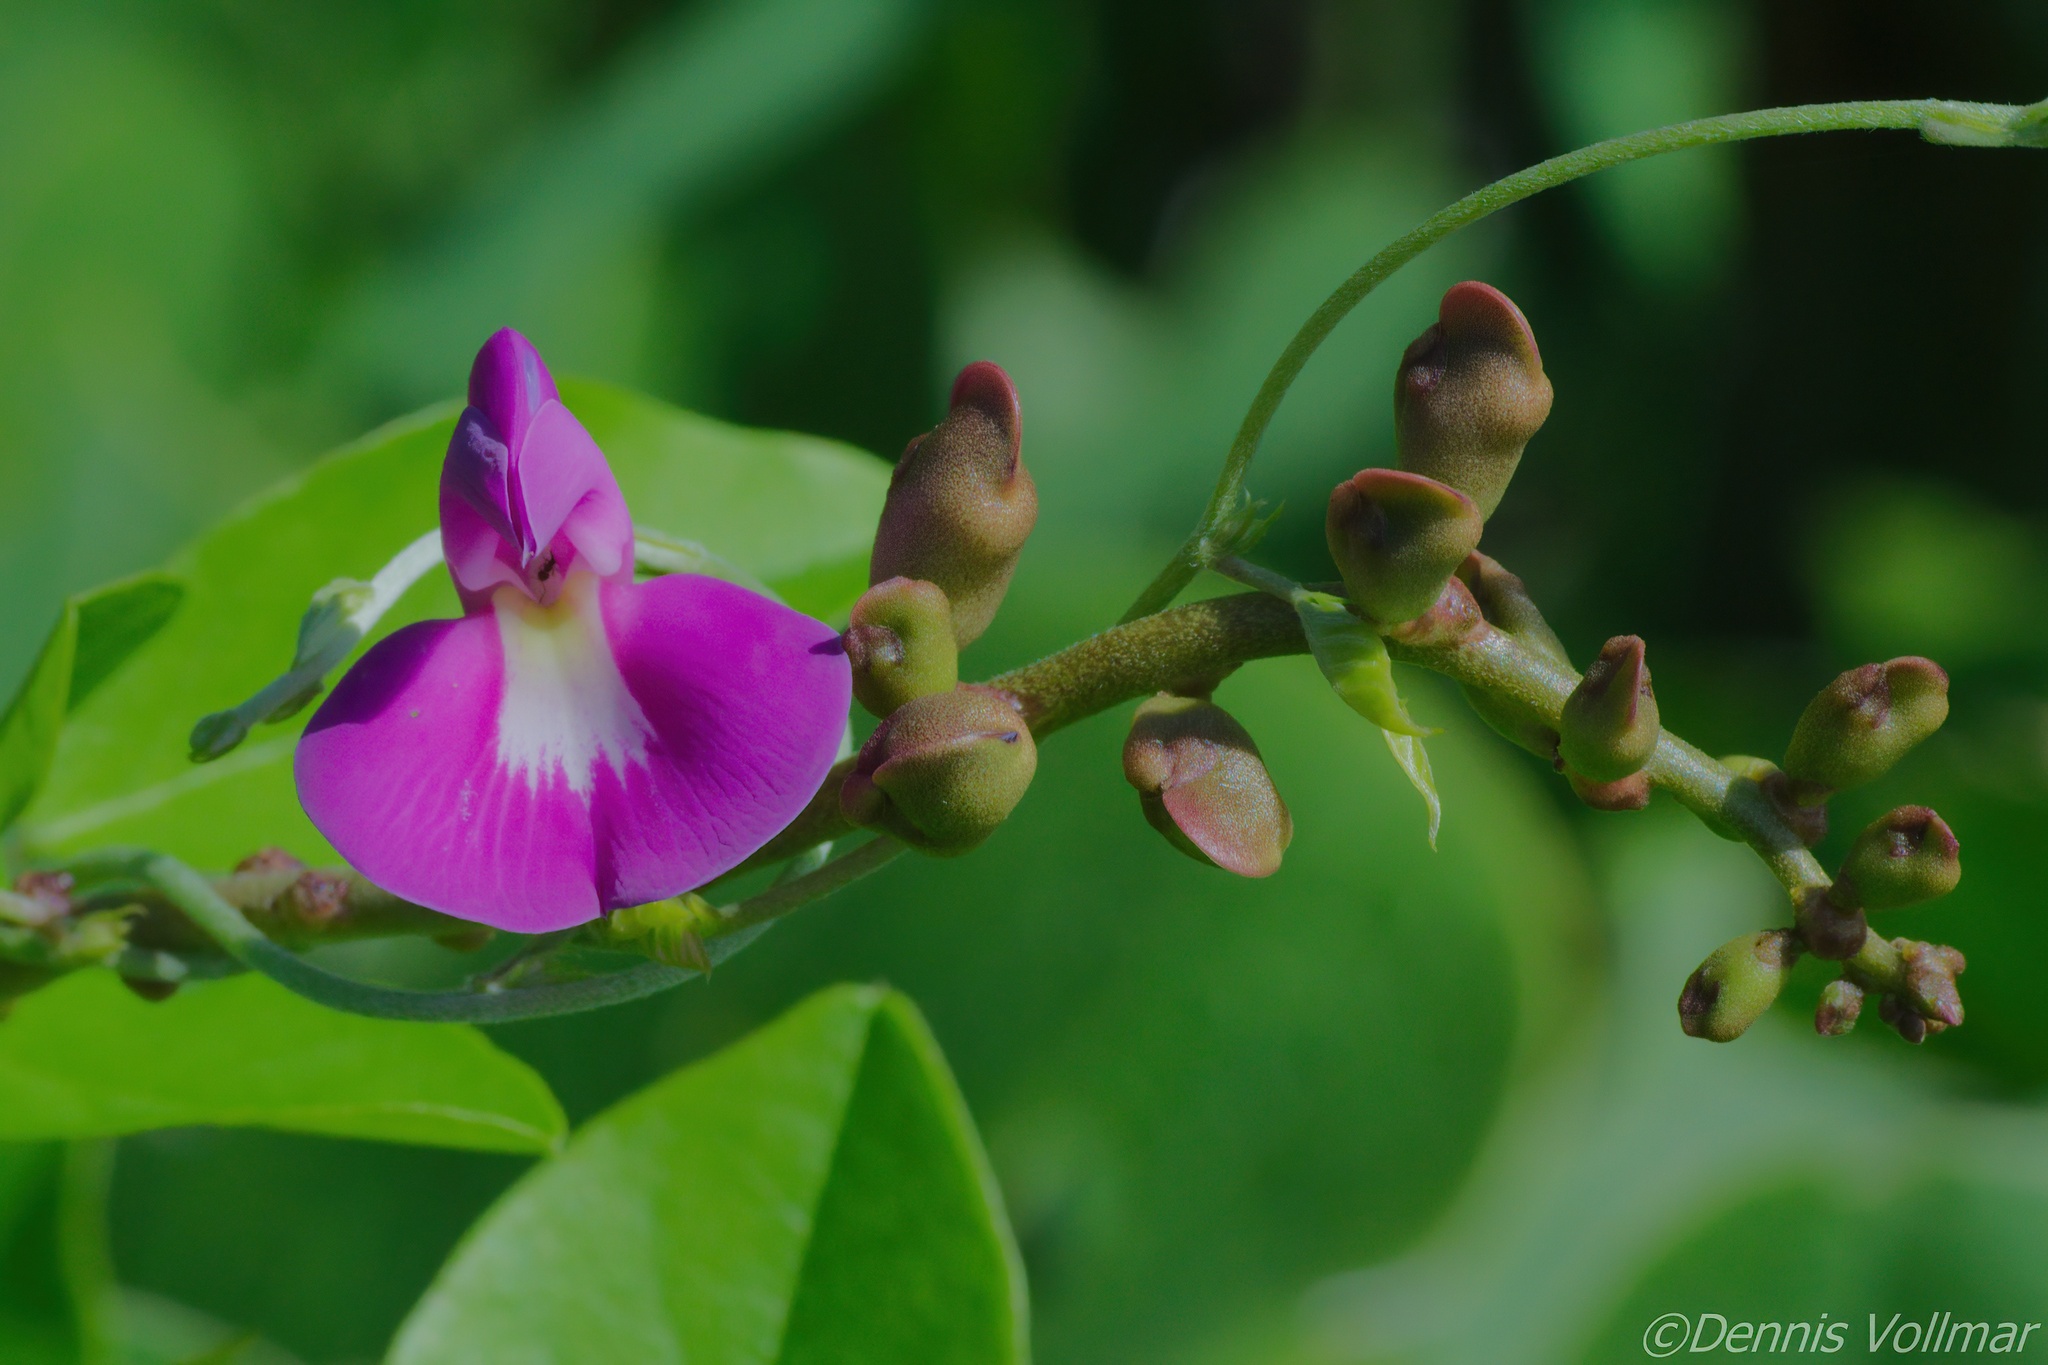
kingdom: Plantae
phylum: Tracheophyta
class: Magnoliopsida
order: Fabales
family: Fabaceae
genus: Canavalia
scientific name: Canavalia rosea
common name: Beach-bean
